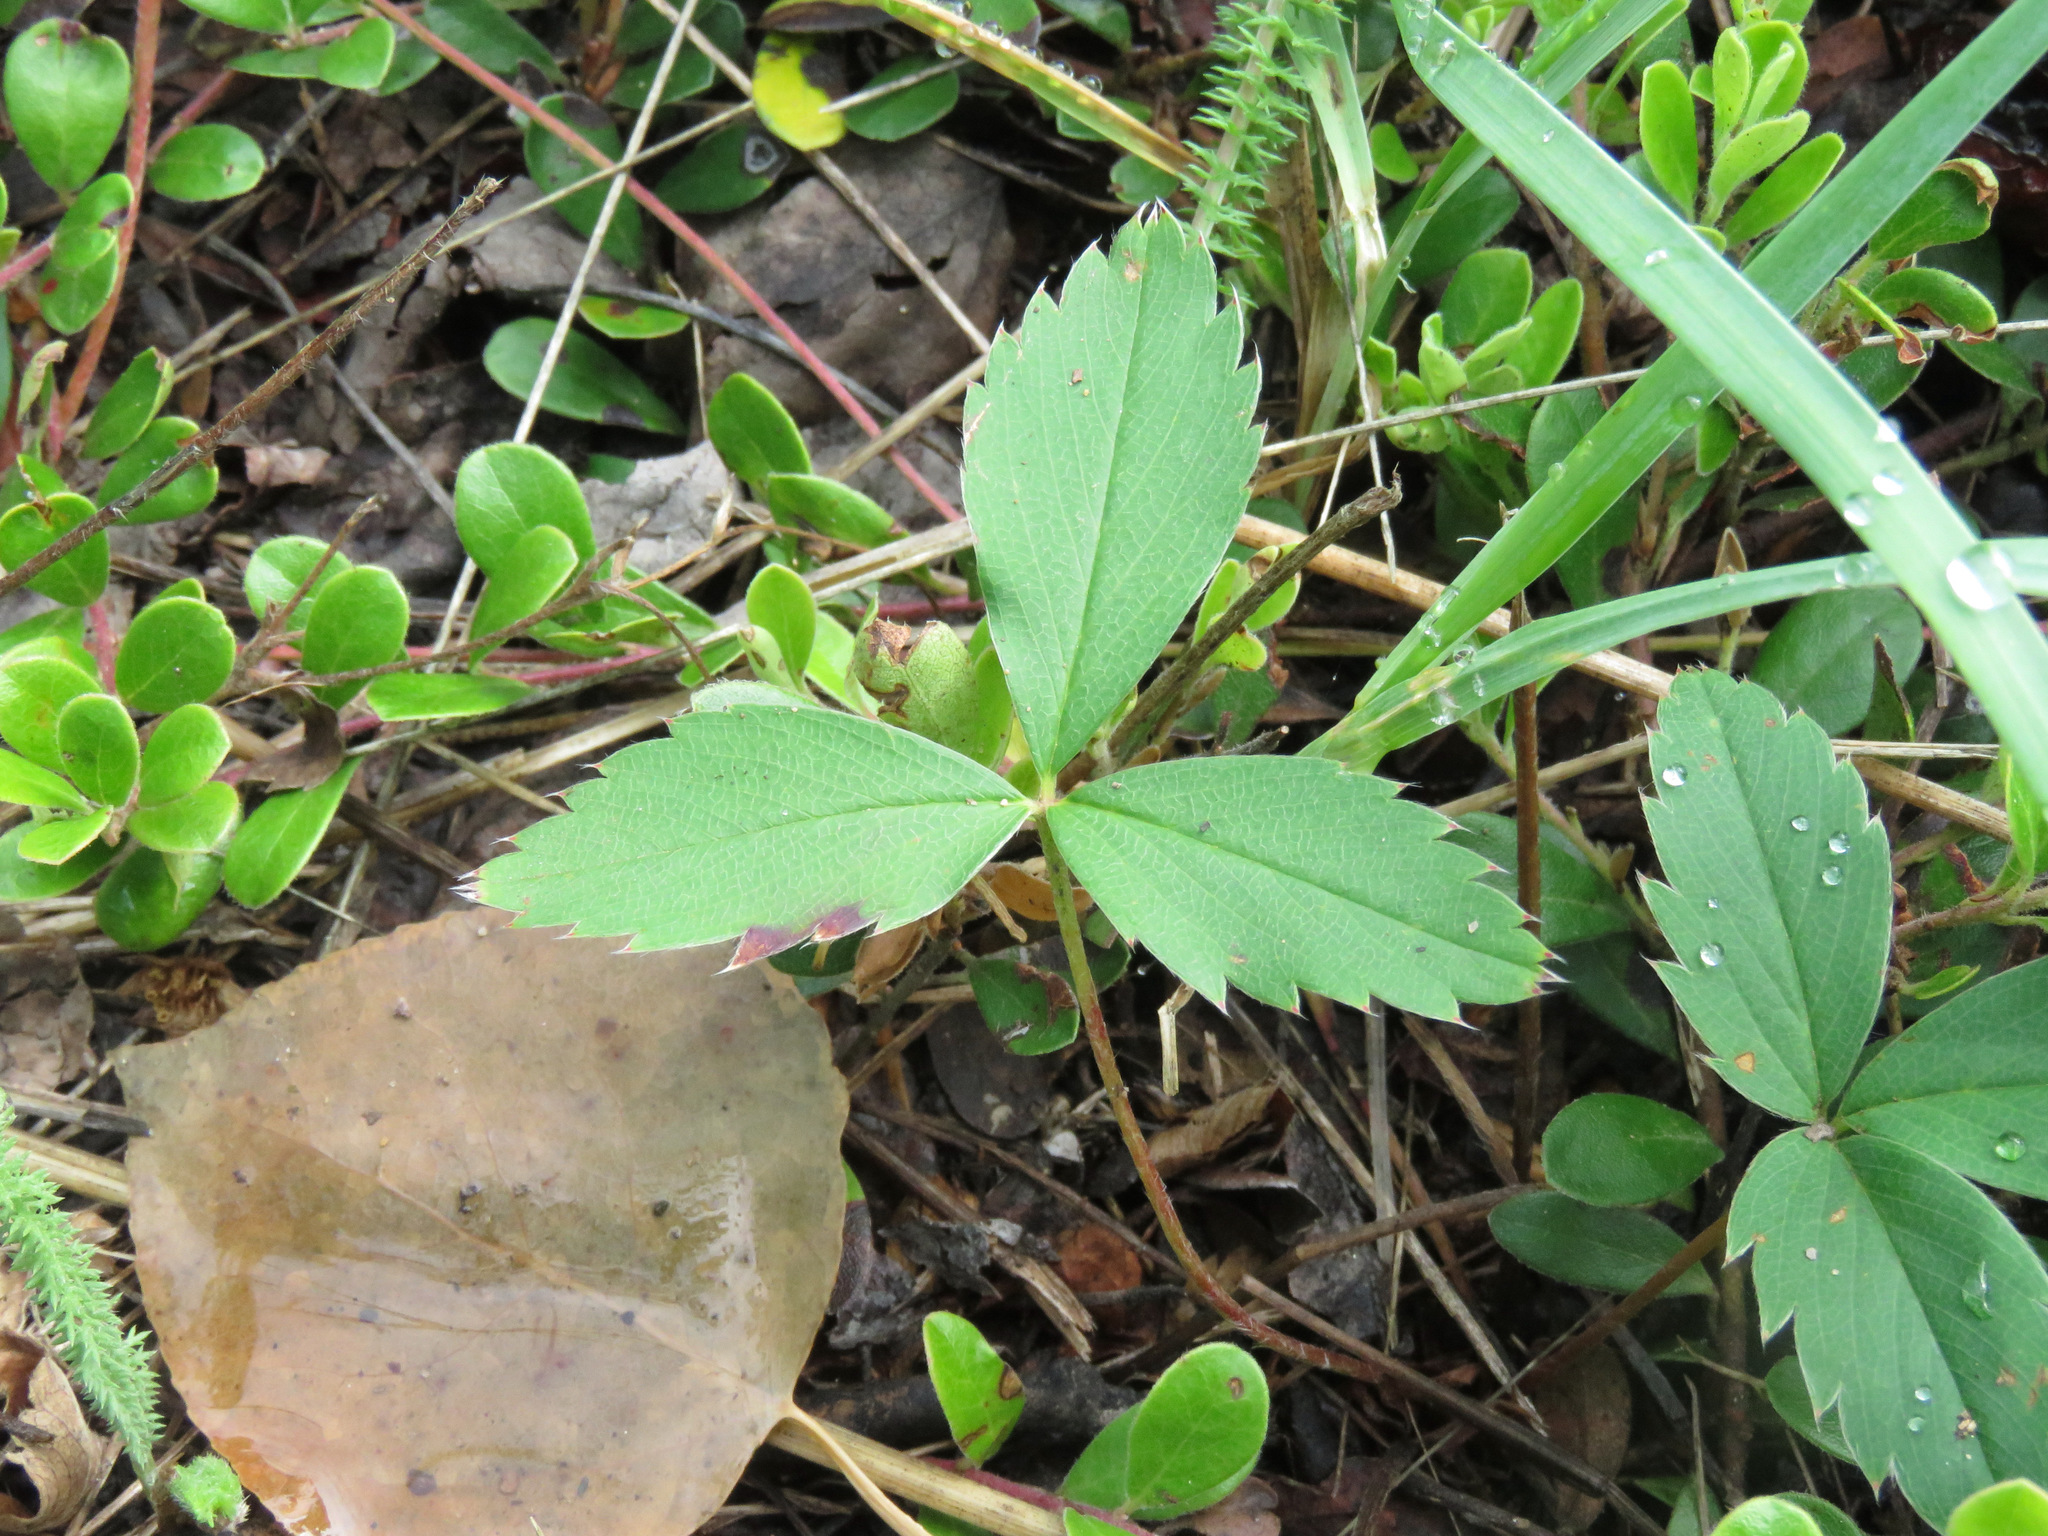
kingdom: Plantae
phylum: Tracheophyta
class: Magnoliopsida
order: Rosales
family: Rosaceae
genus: Fragaria
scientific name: Fragaria virginiana
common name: Thickleaved wild strawberry
